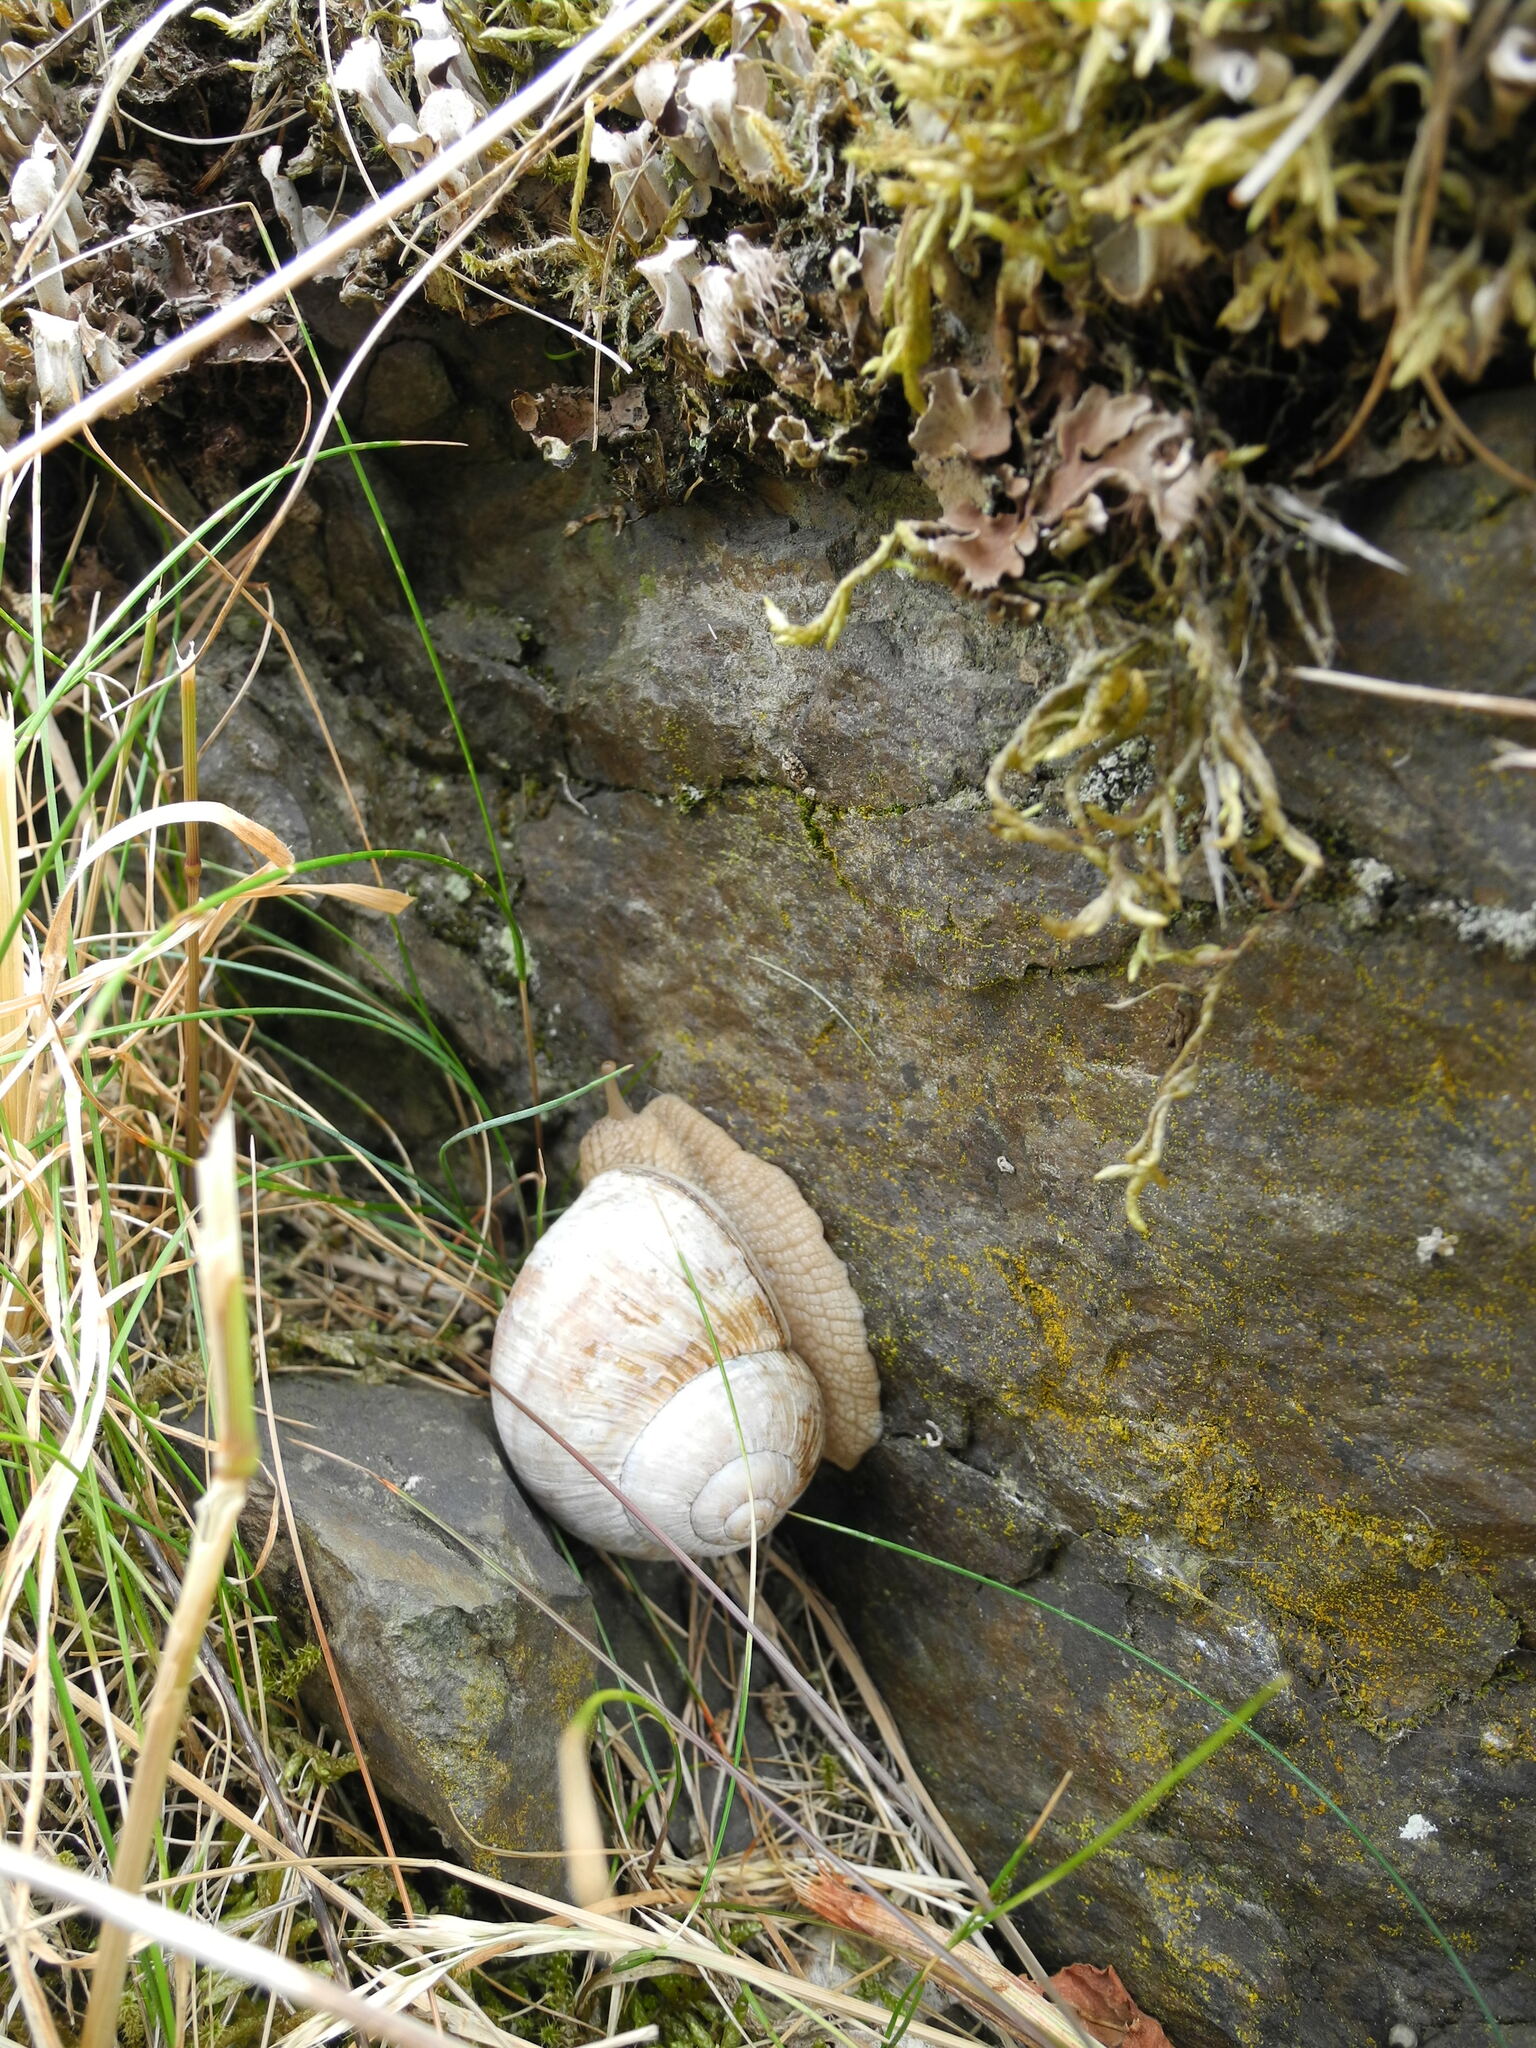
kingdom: Animalia
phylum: Mollusca
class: Gastropoda
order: Stylommatophora
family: Helicidae
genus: Helix
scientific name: Helix pomatia
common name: Roman snail
